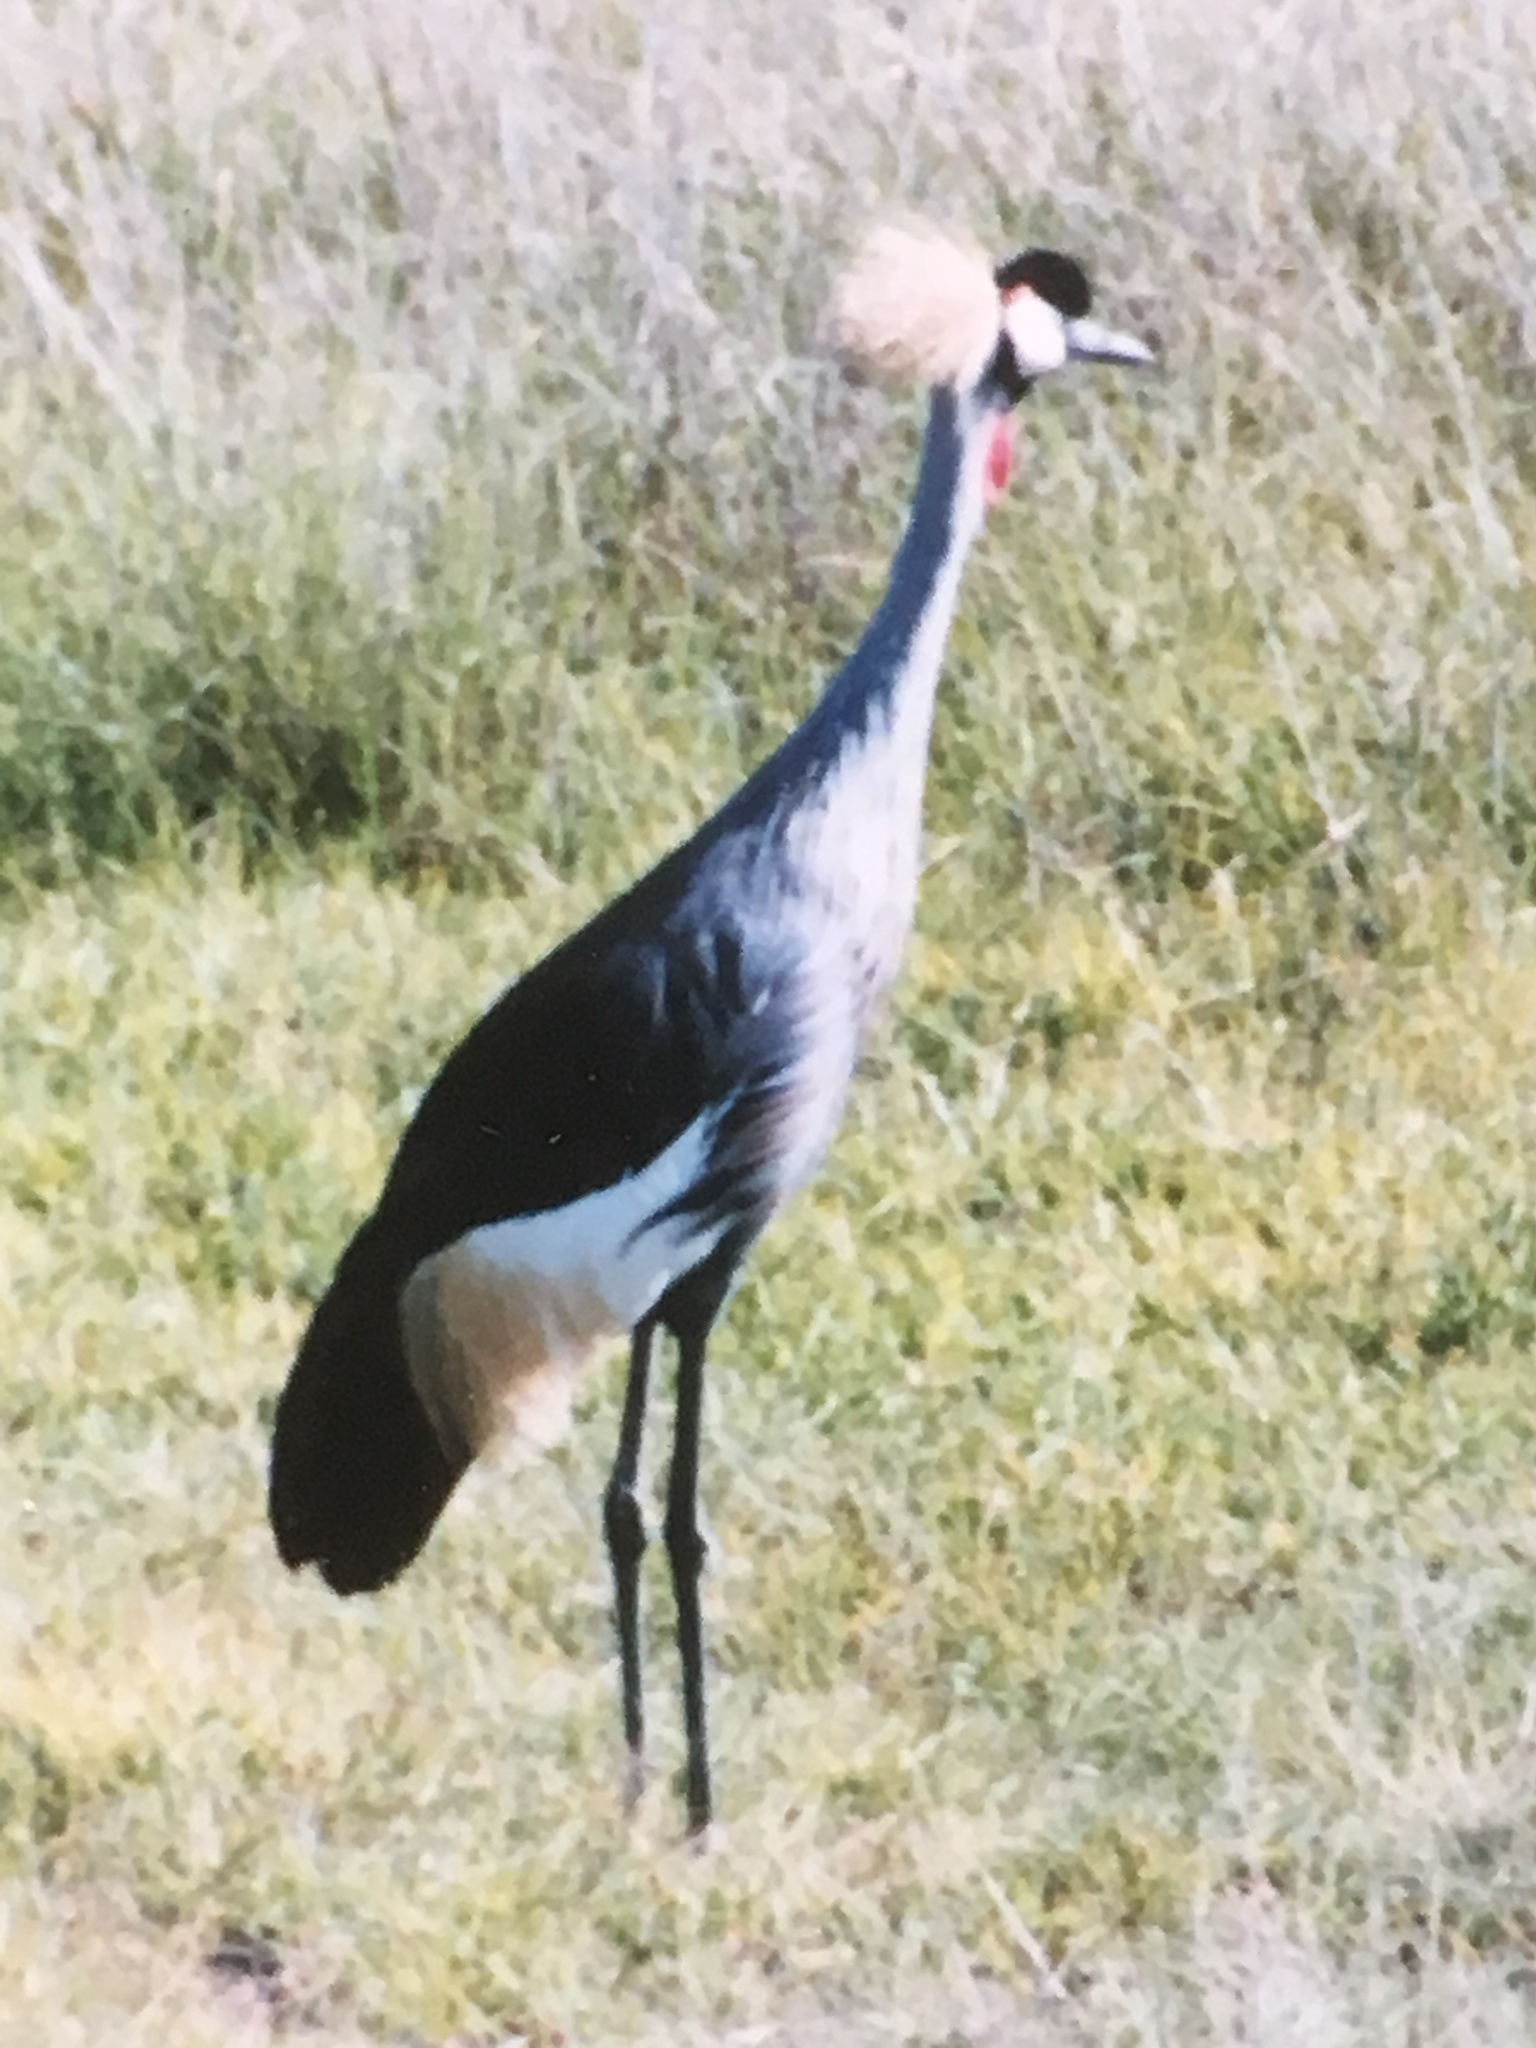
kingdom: Animalia
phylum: Chordata
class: Aves
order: Gruiformes
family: Gruidae
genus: Balearica
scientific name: Balearica regulorum
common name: Grey crowned crane
